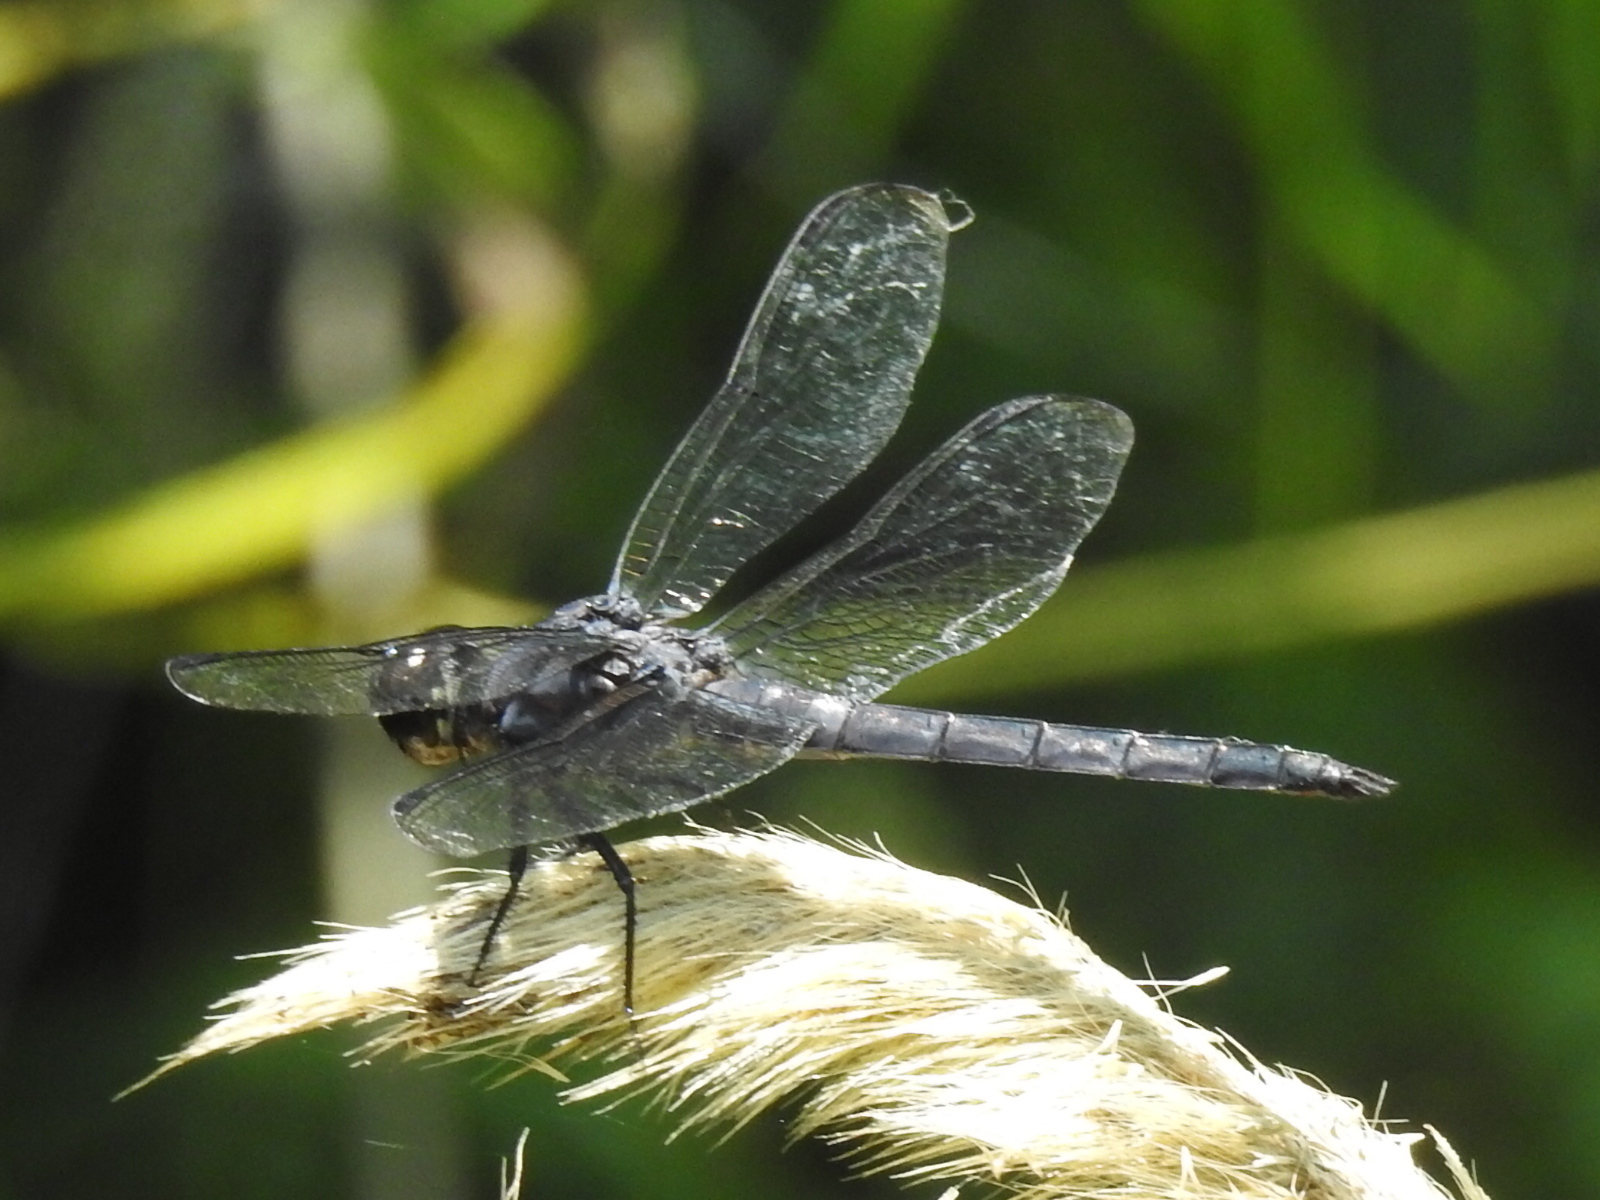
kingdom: Animalia
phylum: Arthropoda
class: Insecta
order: Odonata
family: Libellulidae
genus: Libellula
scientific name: Libellula incesta
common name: Slaty skimmer
